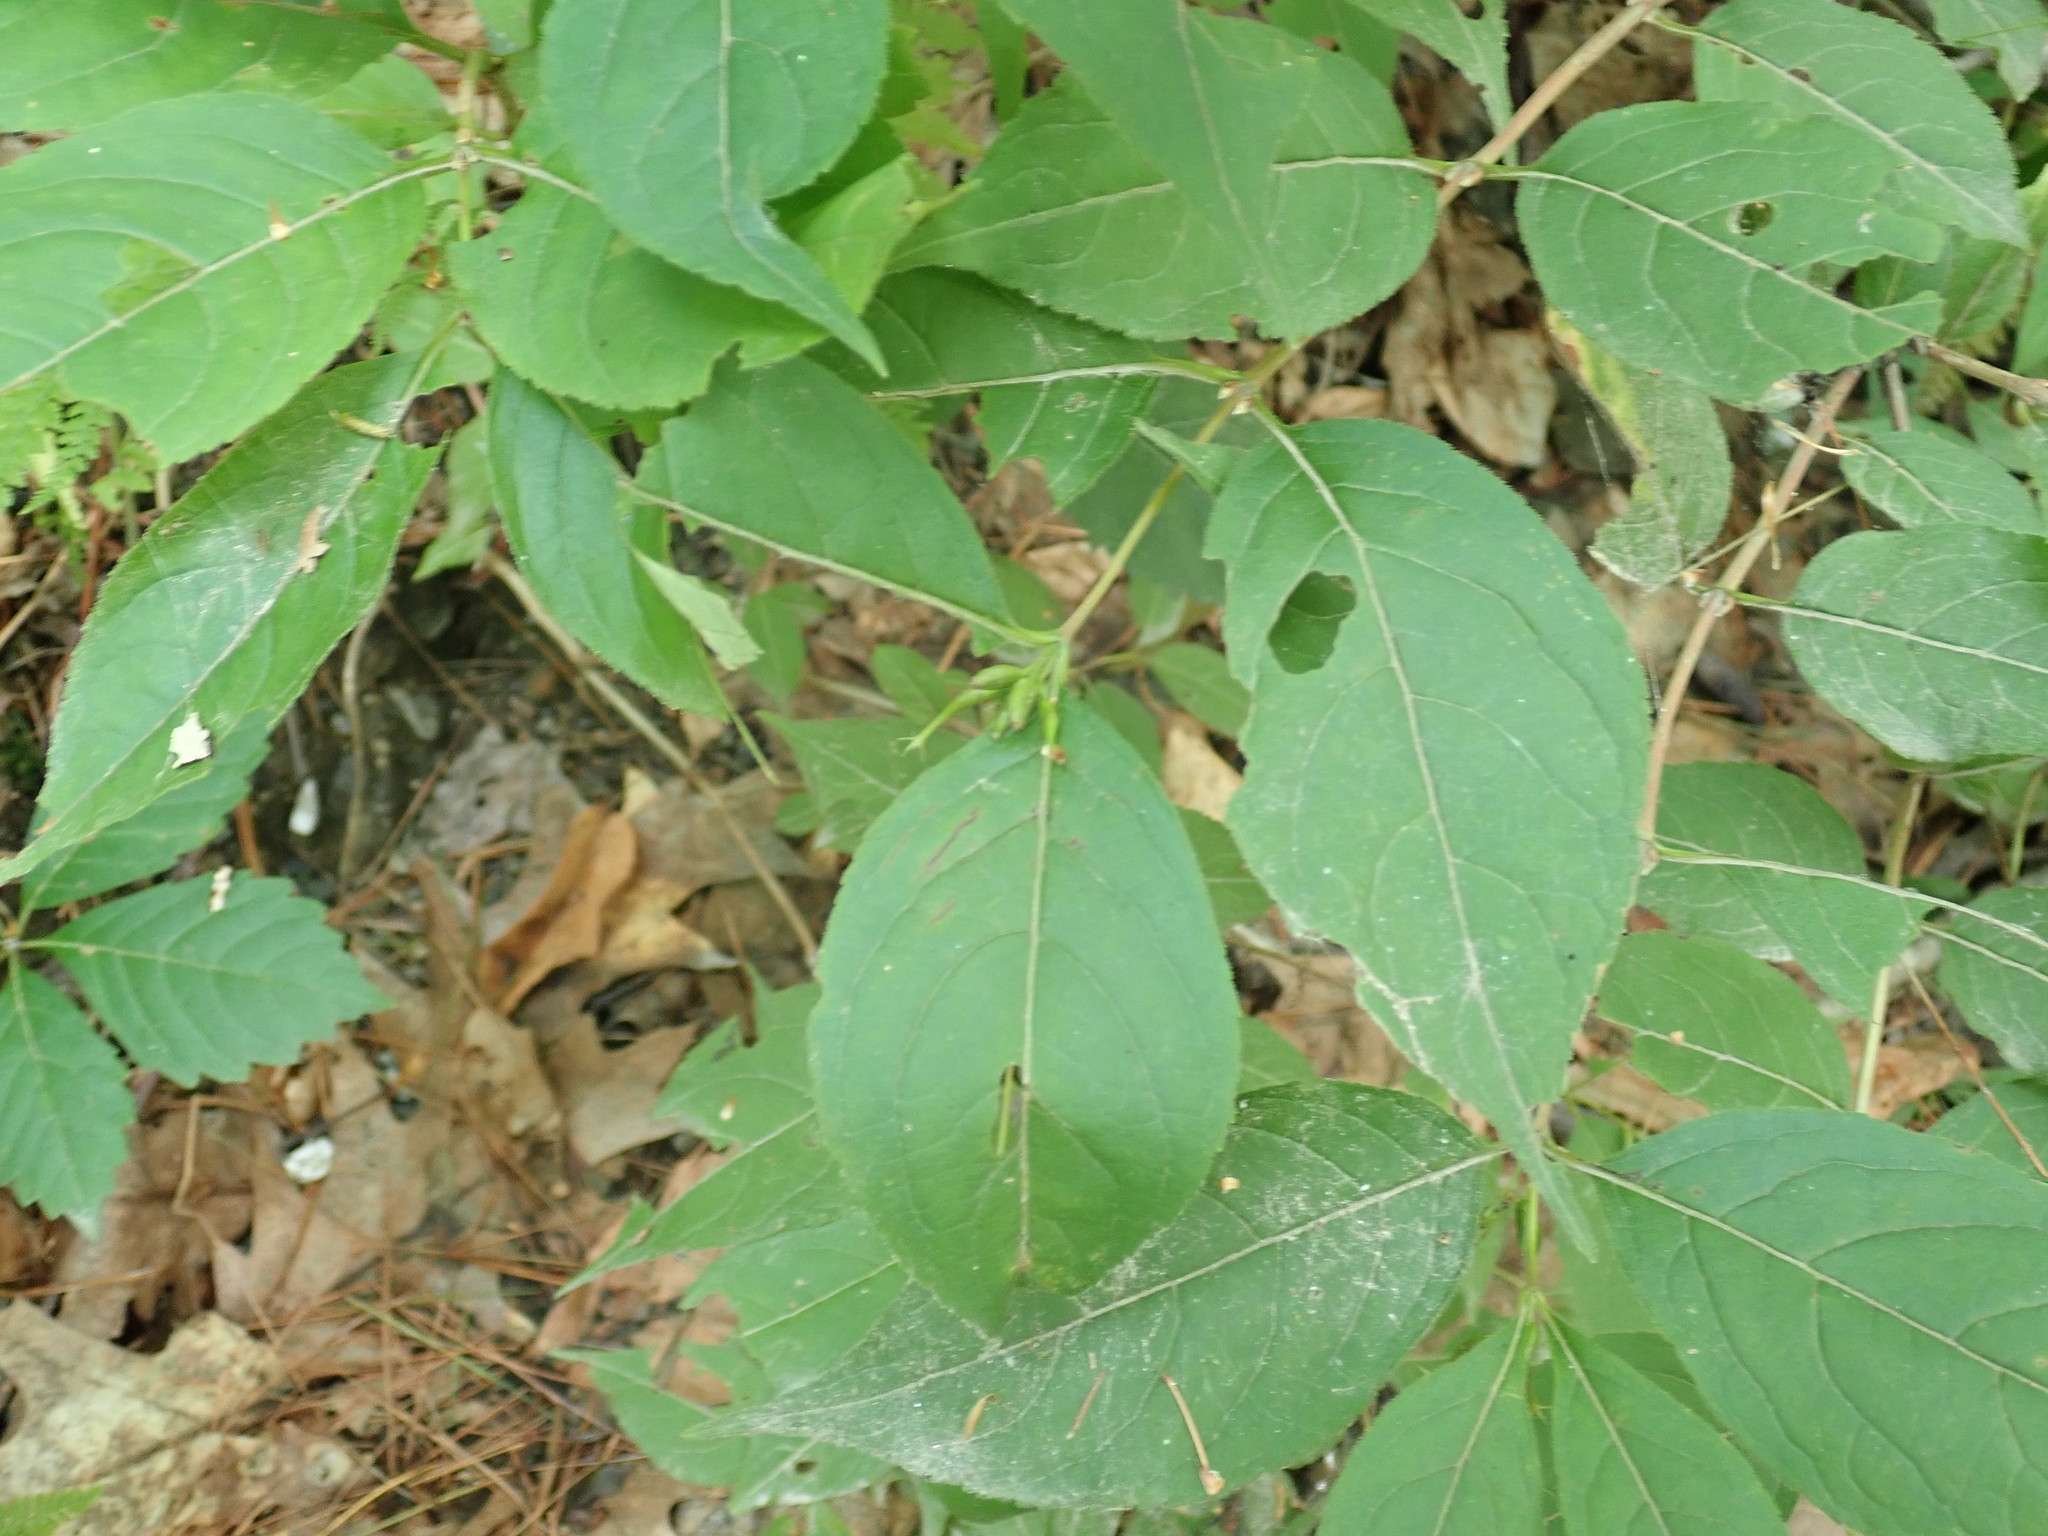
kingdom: Plantae
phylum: Tracheophyta
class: Magnoliopsida
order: Dipsacales
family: Caprifoliaceae
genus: Diervilla
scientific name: Diervilla lonicera
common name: Bush-honeysuckle
